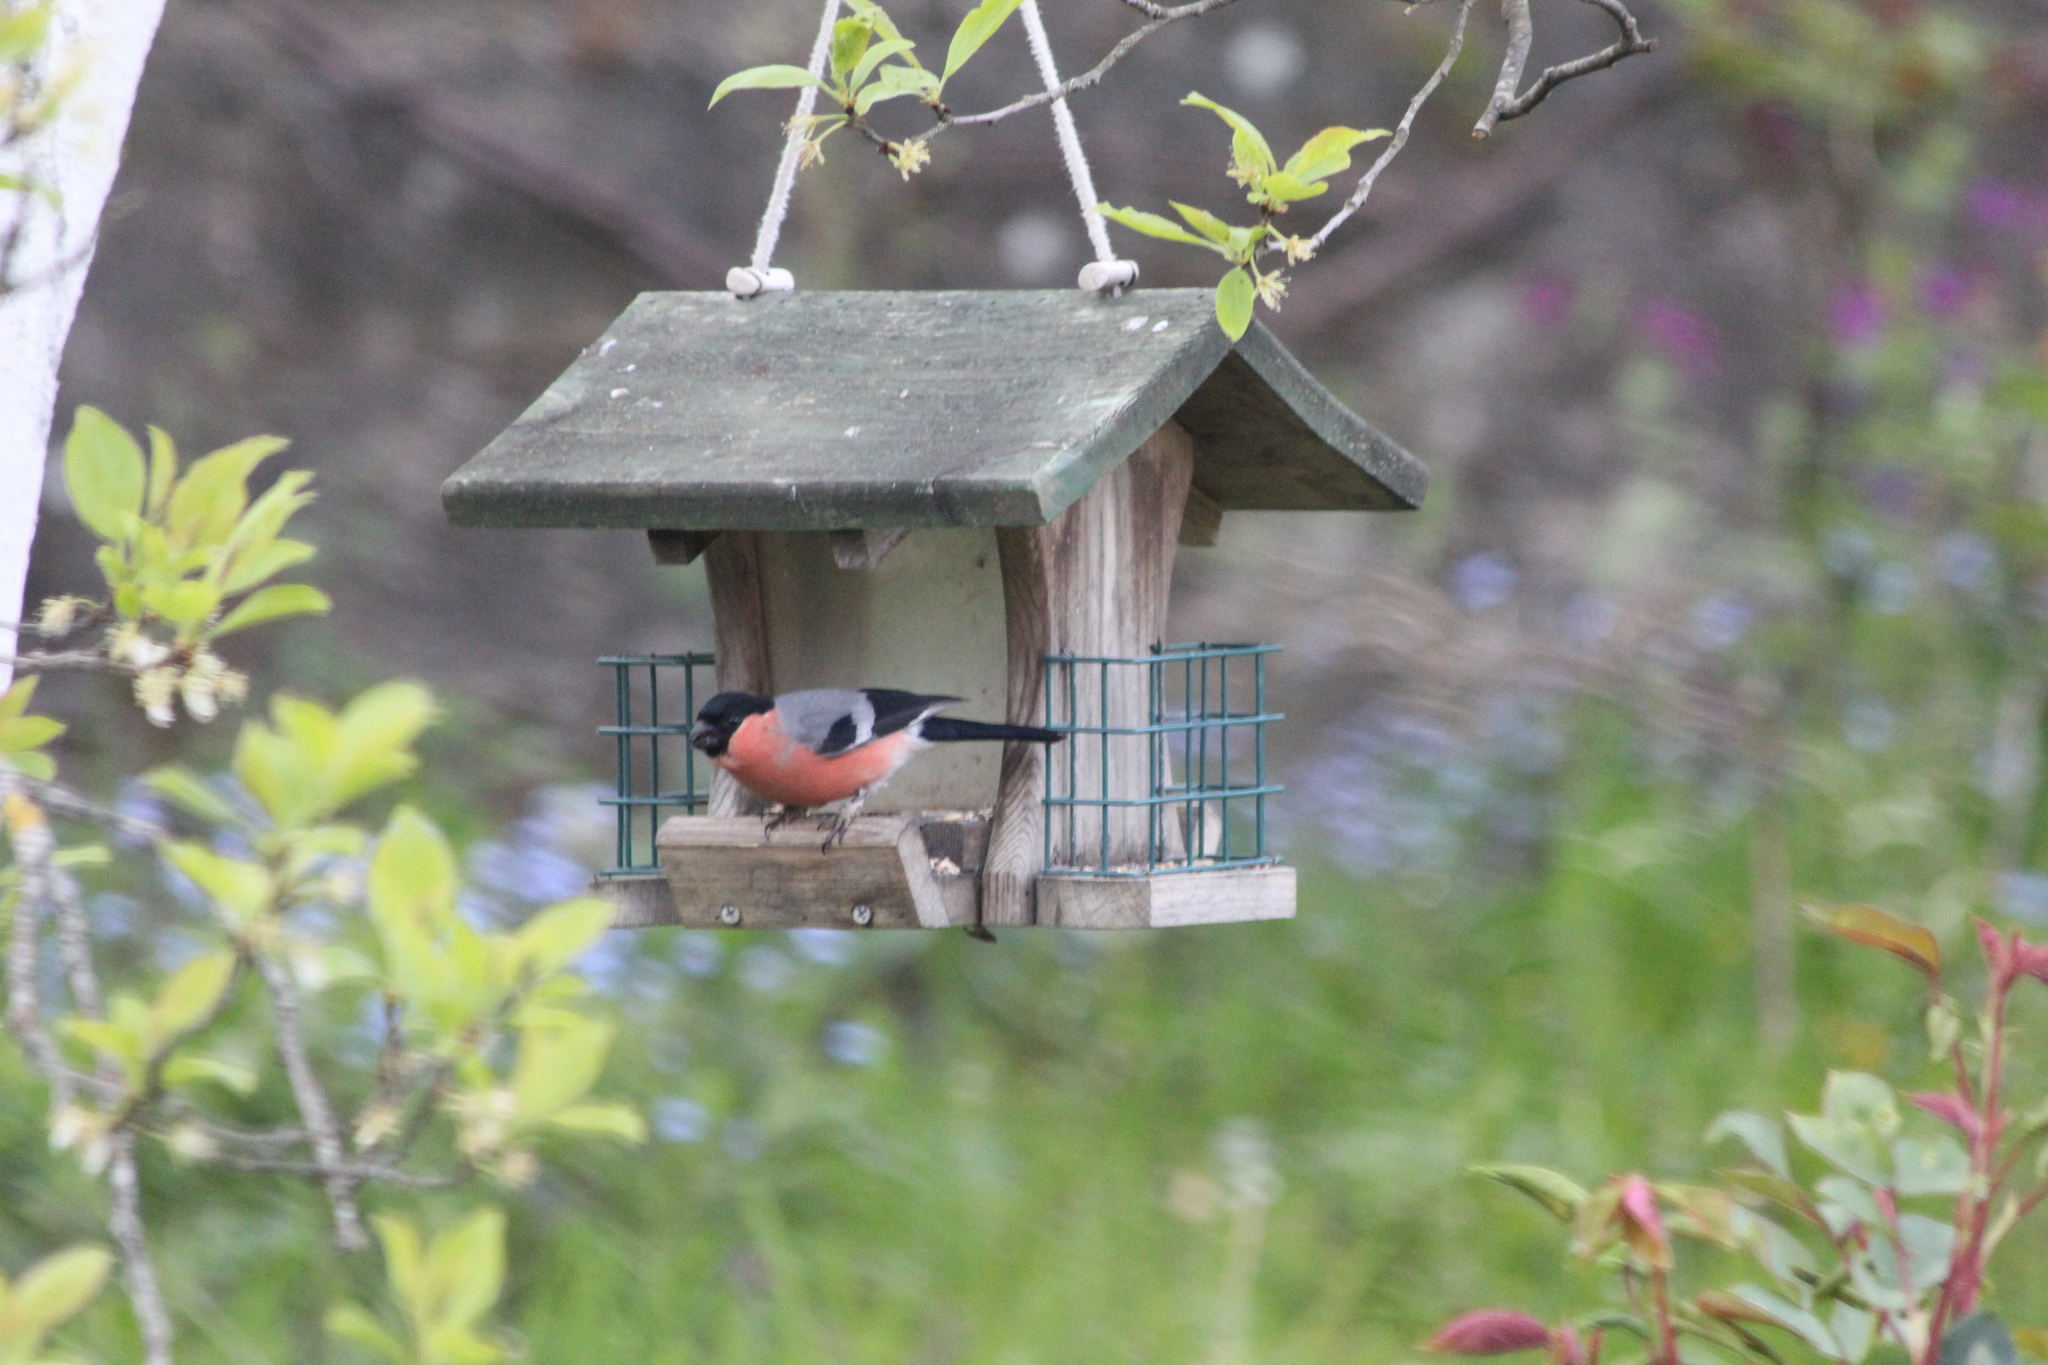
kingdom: Animalia
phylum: Chordata
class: Aves
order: Passeriformes
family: Fringillidae
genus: Pyrrhula
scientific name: Pyrrhula pyrrhula
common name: Eurasian bullfinch
